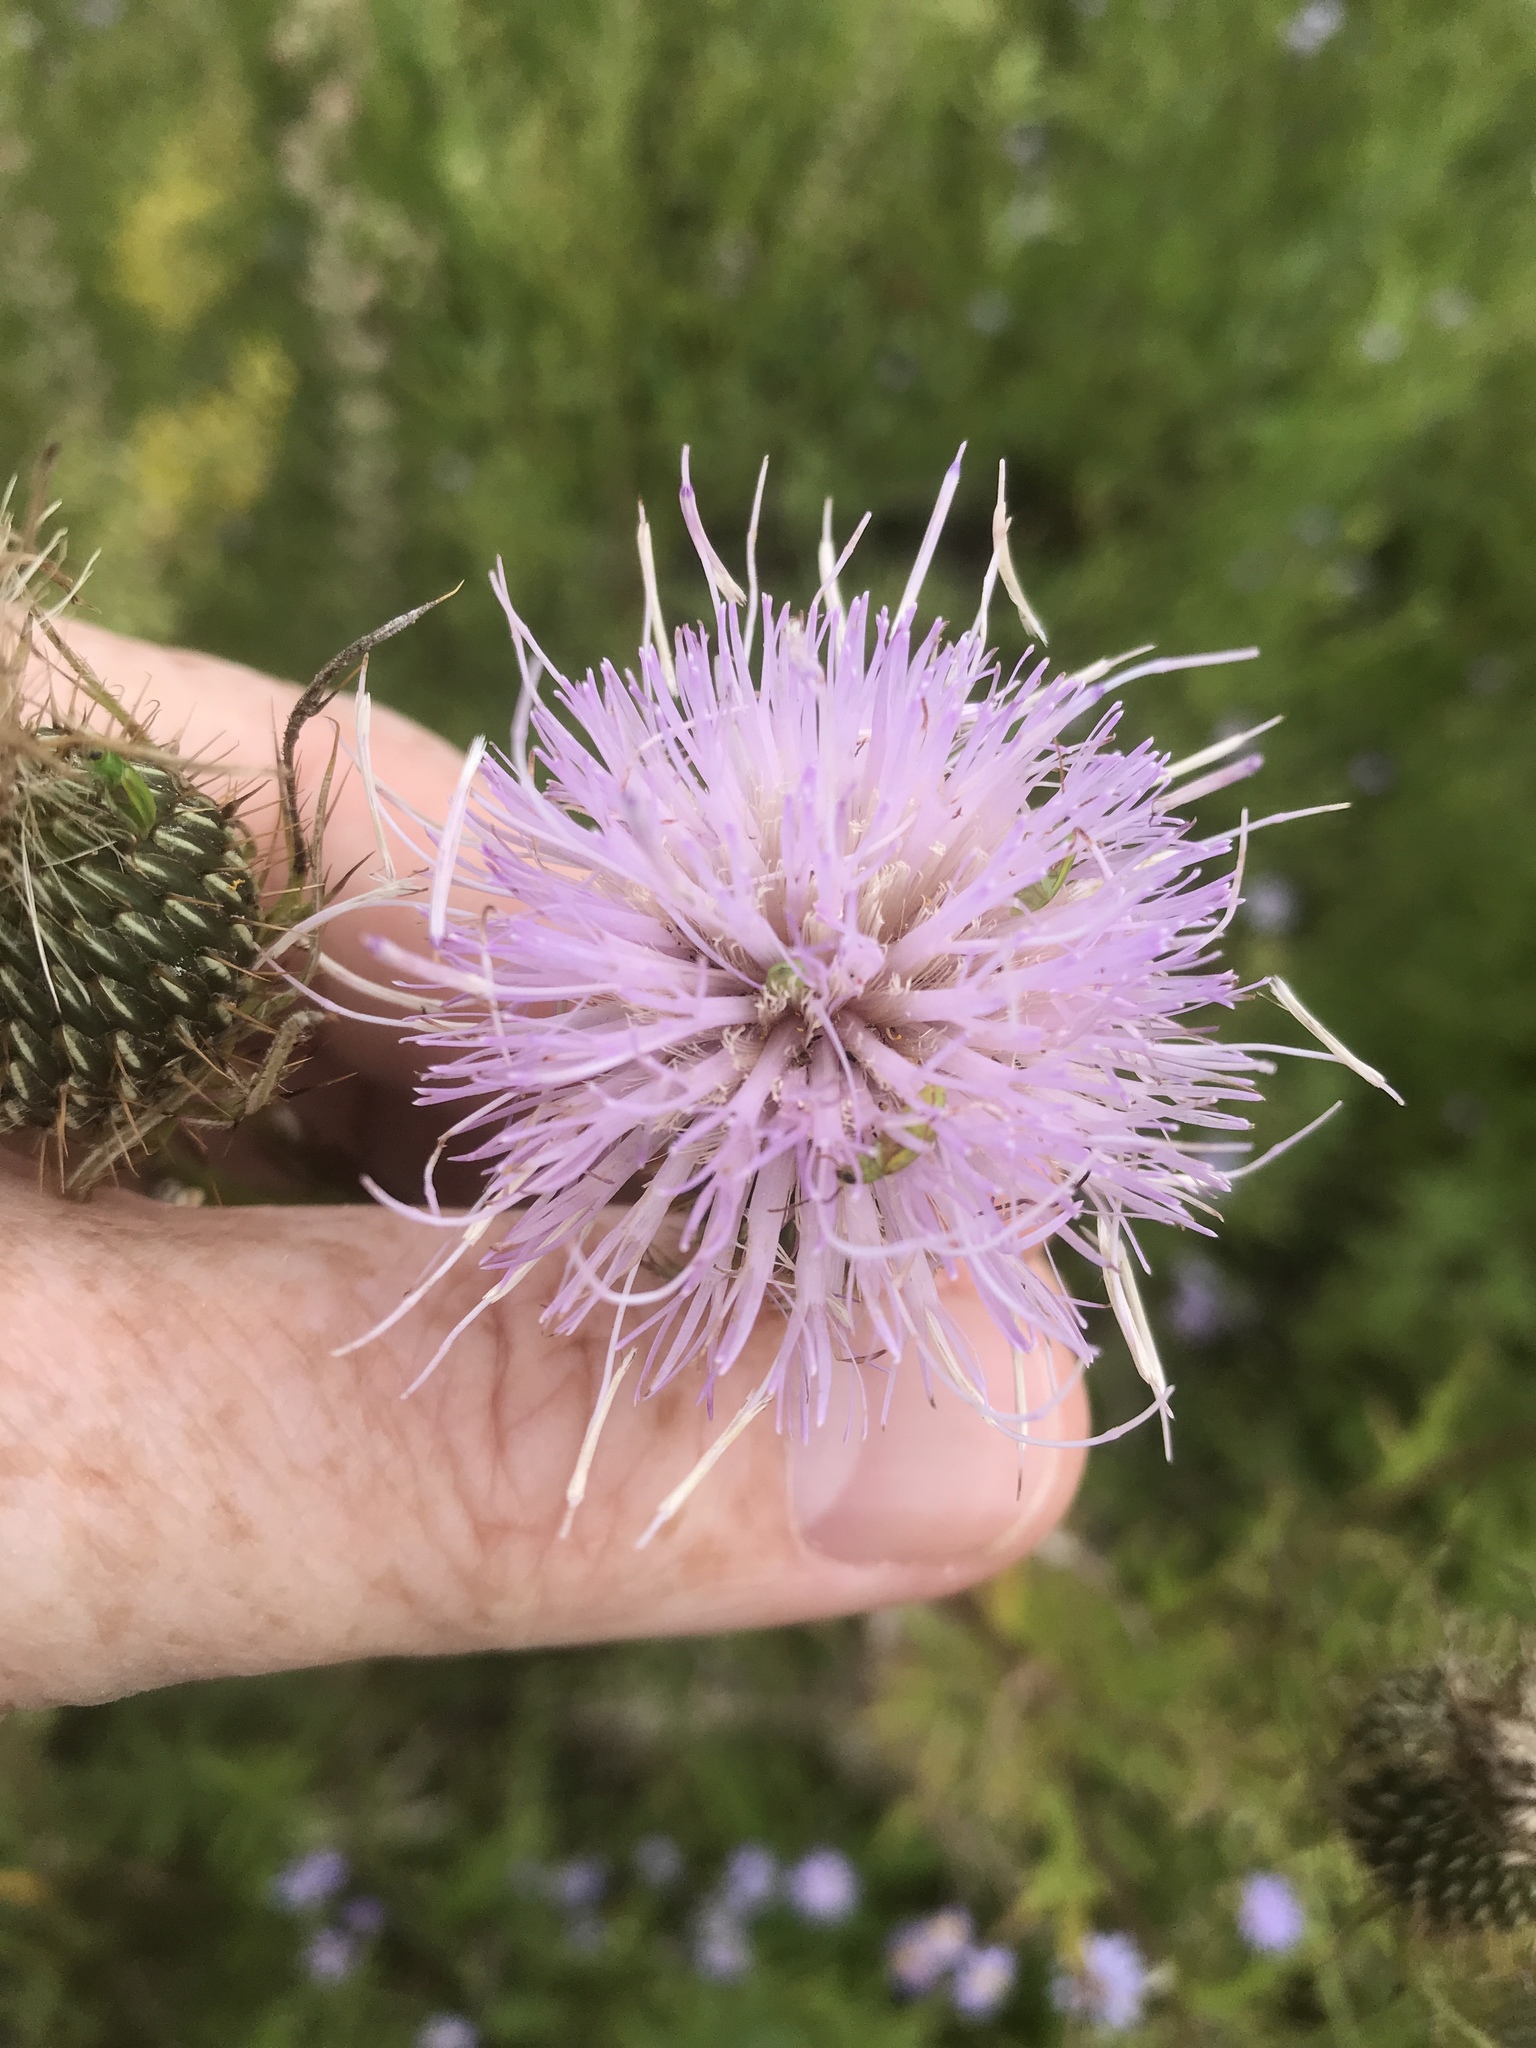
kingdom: Plantae
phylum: Tracheophyta
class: Magnoliopsida
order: Asterales
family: Asteraceae
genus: Cirsium
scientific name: Cirsium discolor
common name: Field thistle
